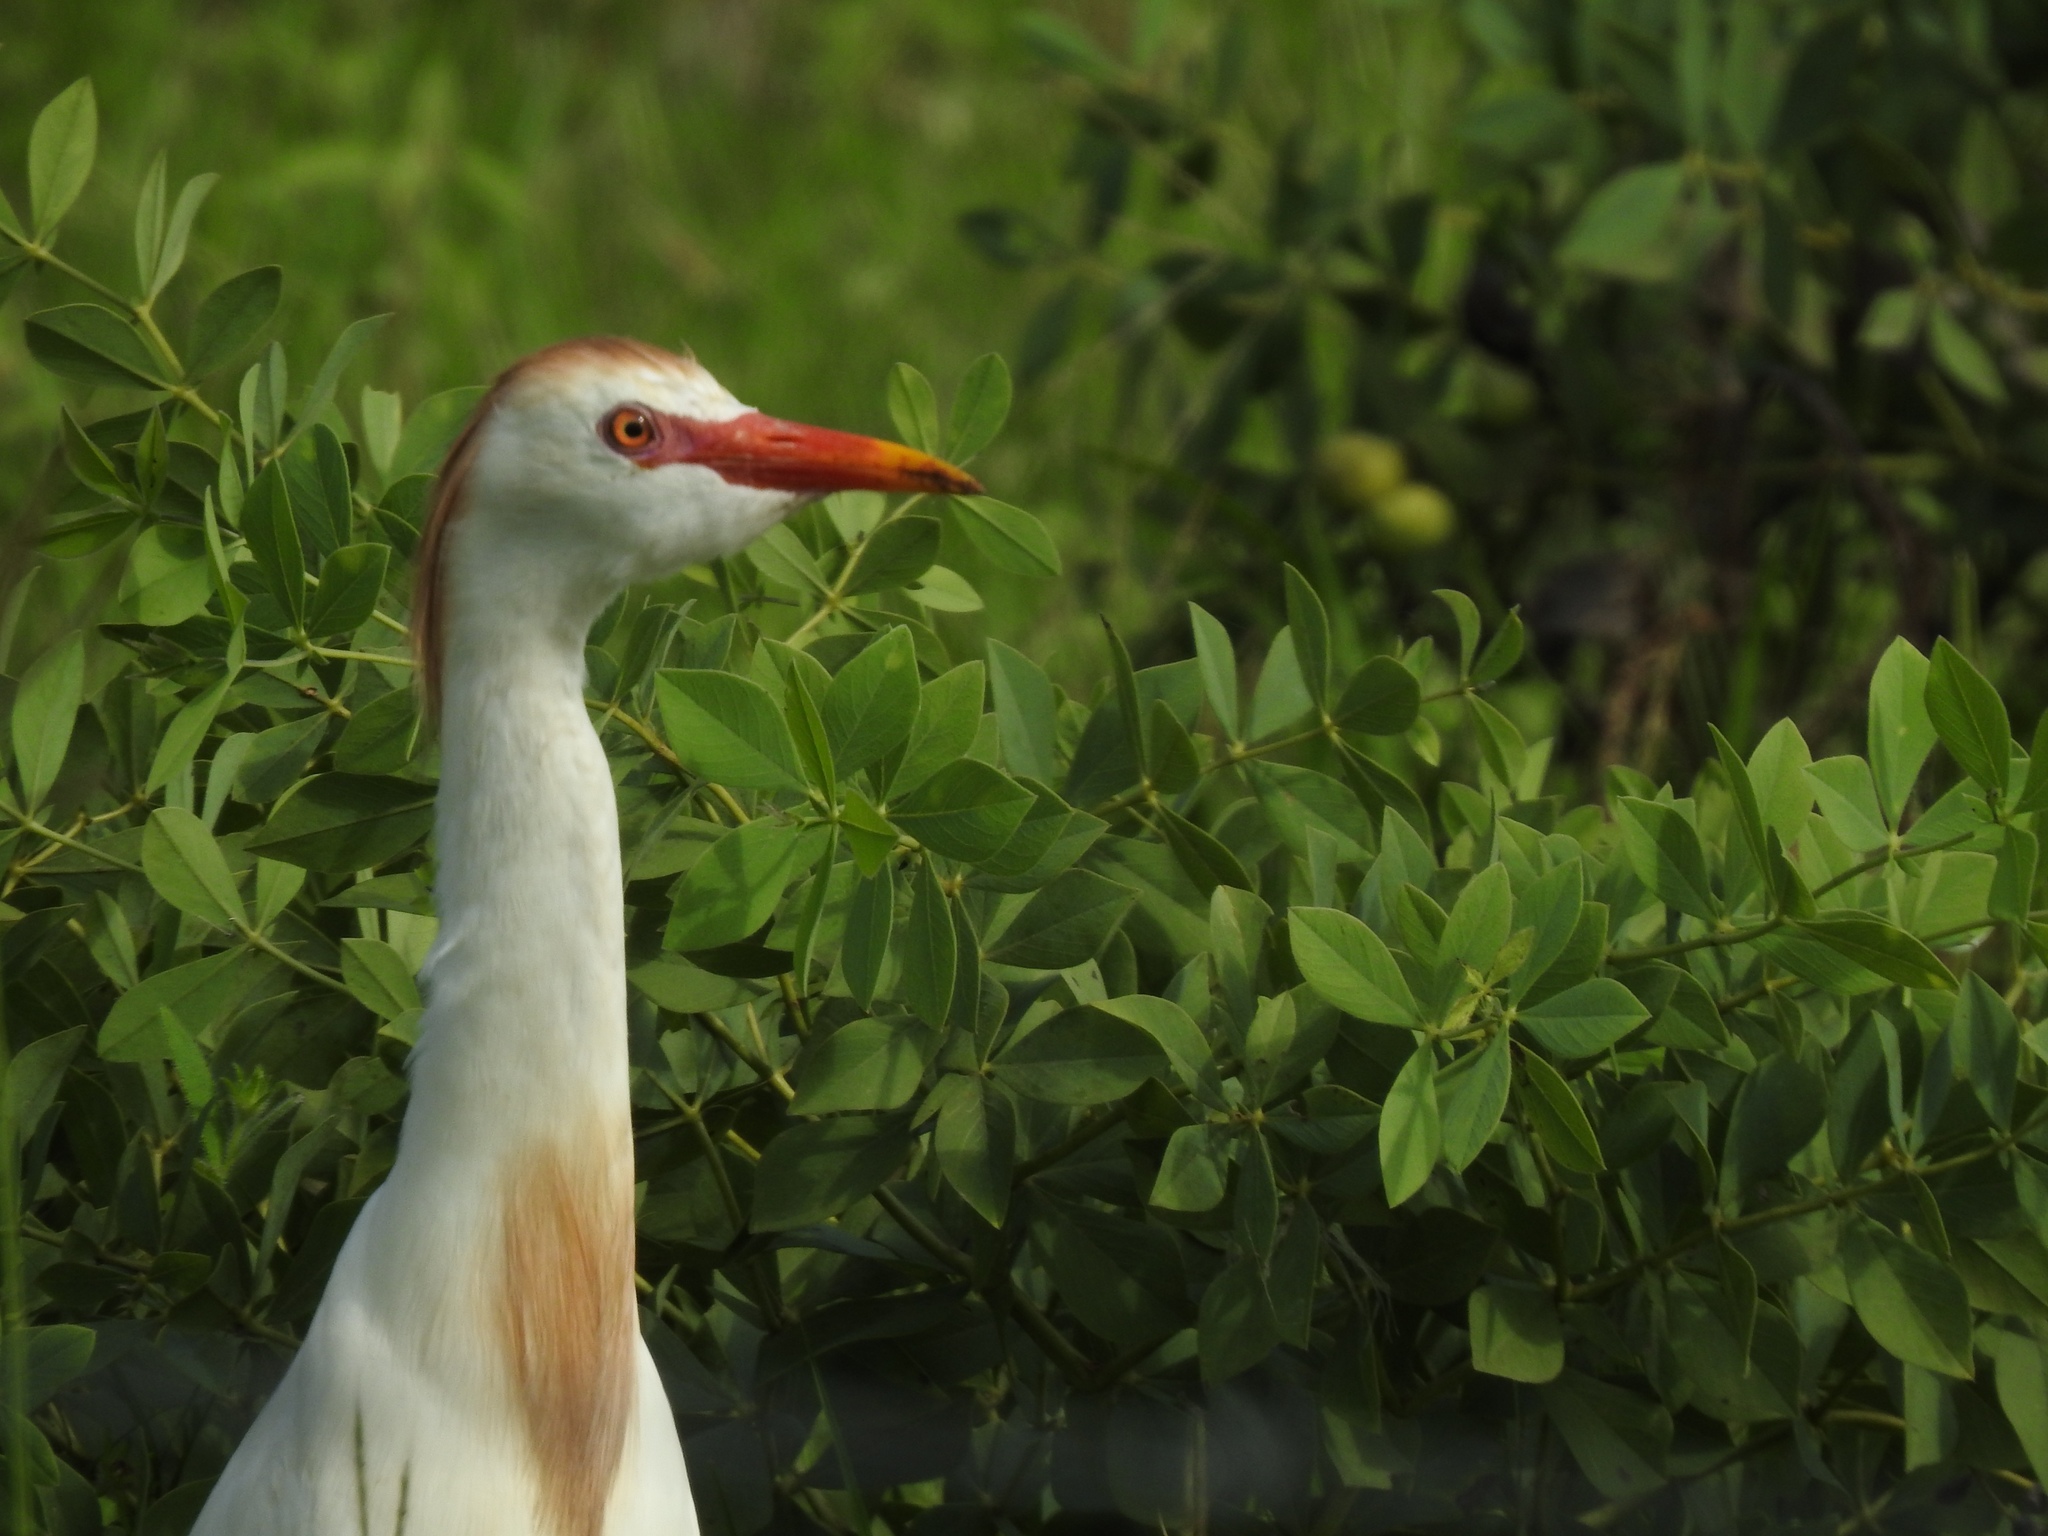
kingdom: Animalia
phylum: Chordata
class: Aves
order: Pelecaniformes
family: Ardeidae
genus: Bubulcus
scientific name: Bubulcus ibis
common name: Cattle egret
